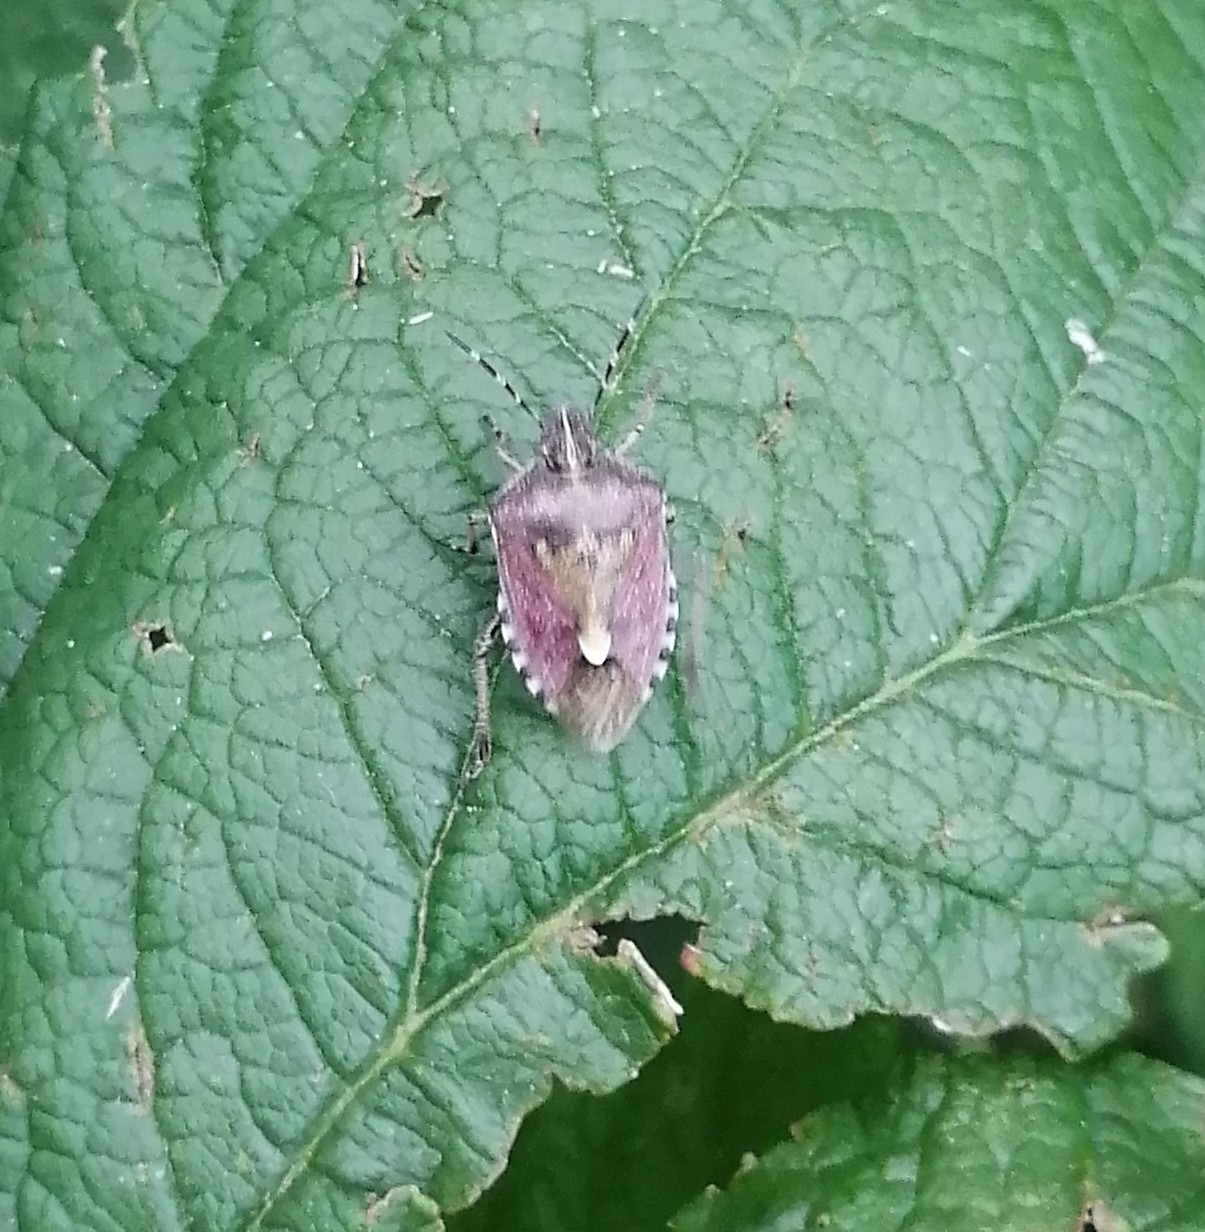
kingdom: Animalia
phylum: Arthropoda
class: Insecta
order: Hemiptera
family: Pentatomidae
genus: Dolycoris
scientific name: Dolycoris baccarum
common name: Sloe bug
